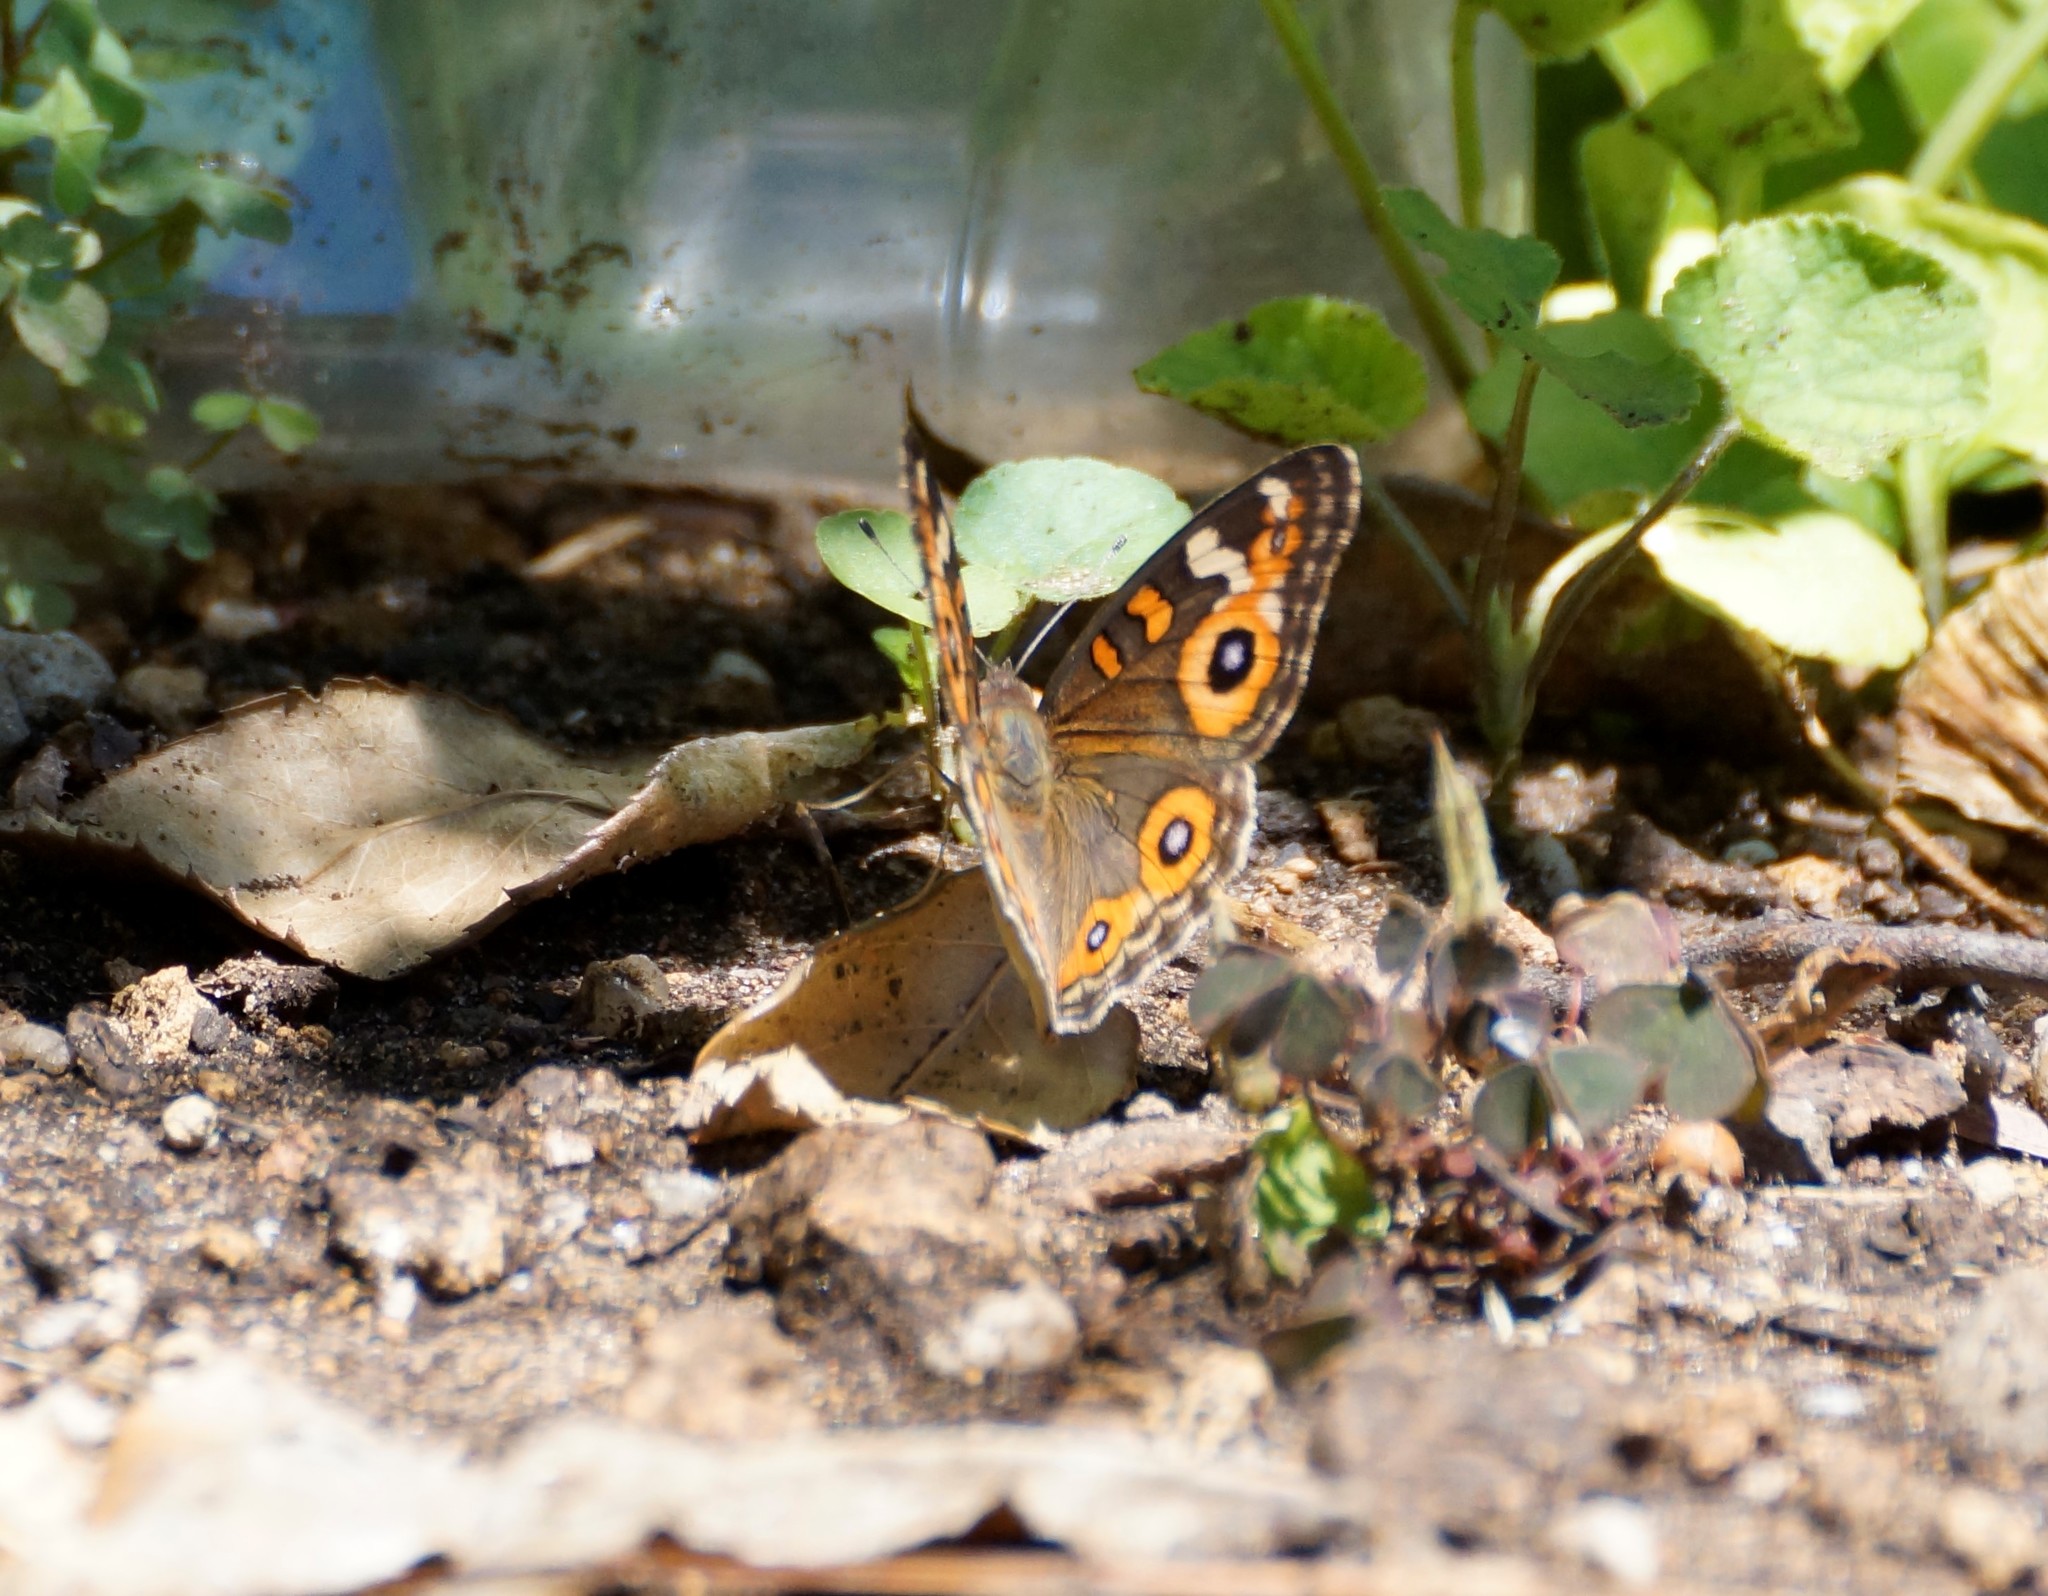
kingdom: Animalia
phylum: Arthropoda
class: Insecta
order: Lepidoptera
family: Nymphalidae
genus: Junonia
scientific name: Junonia villida
